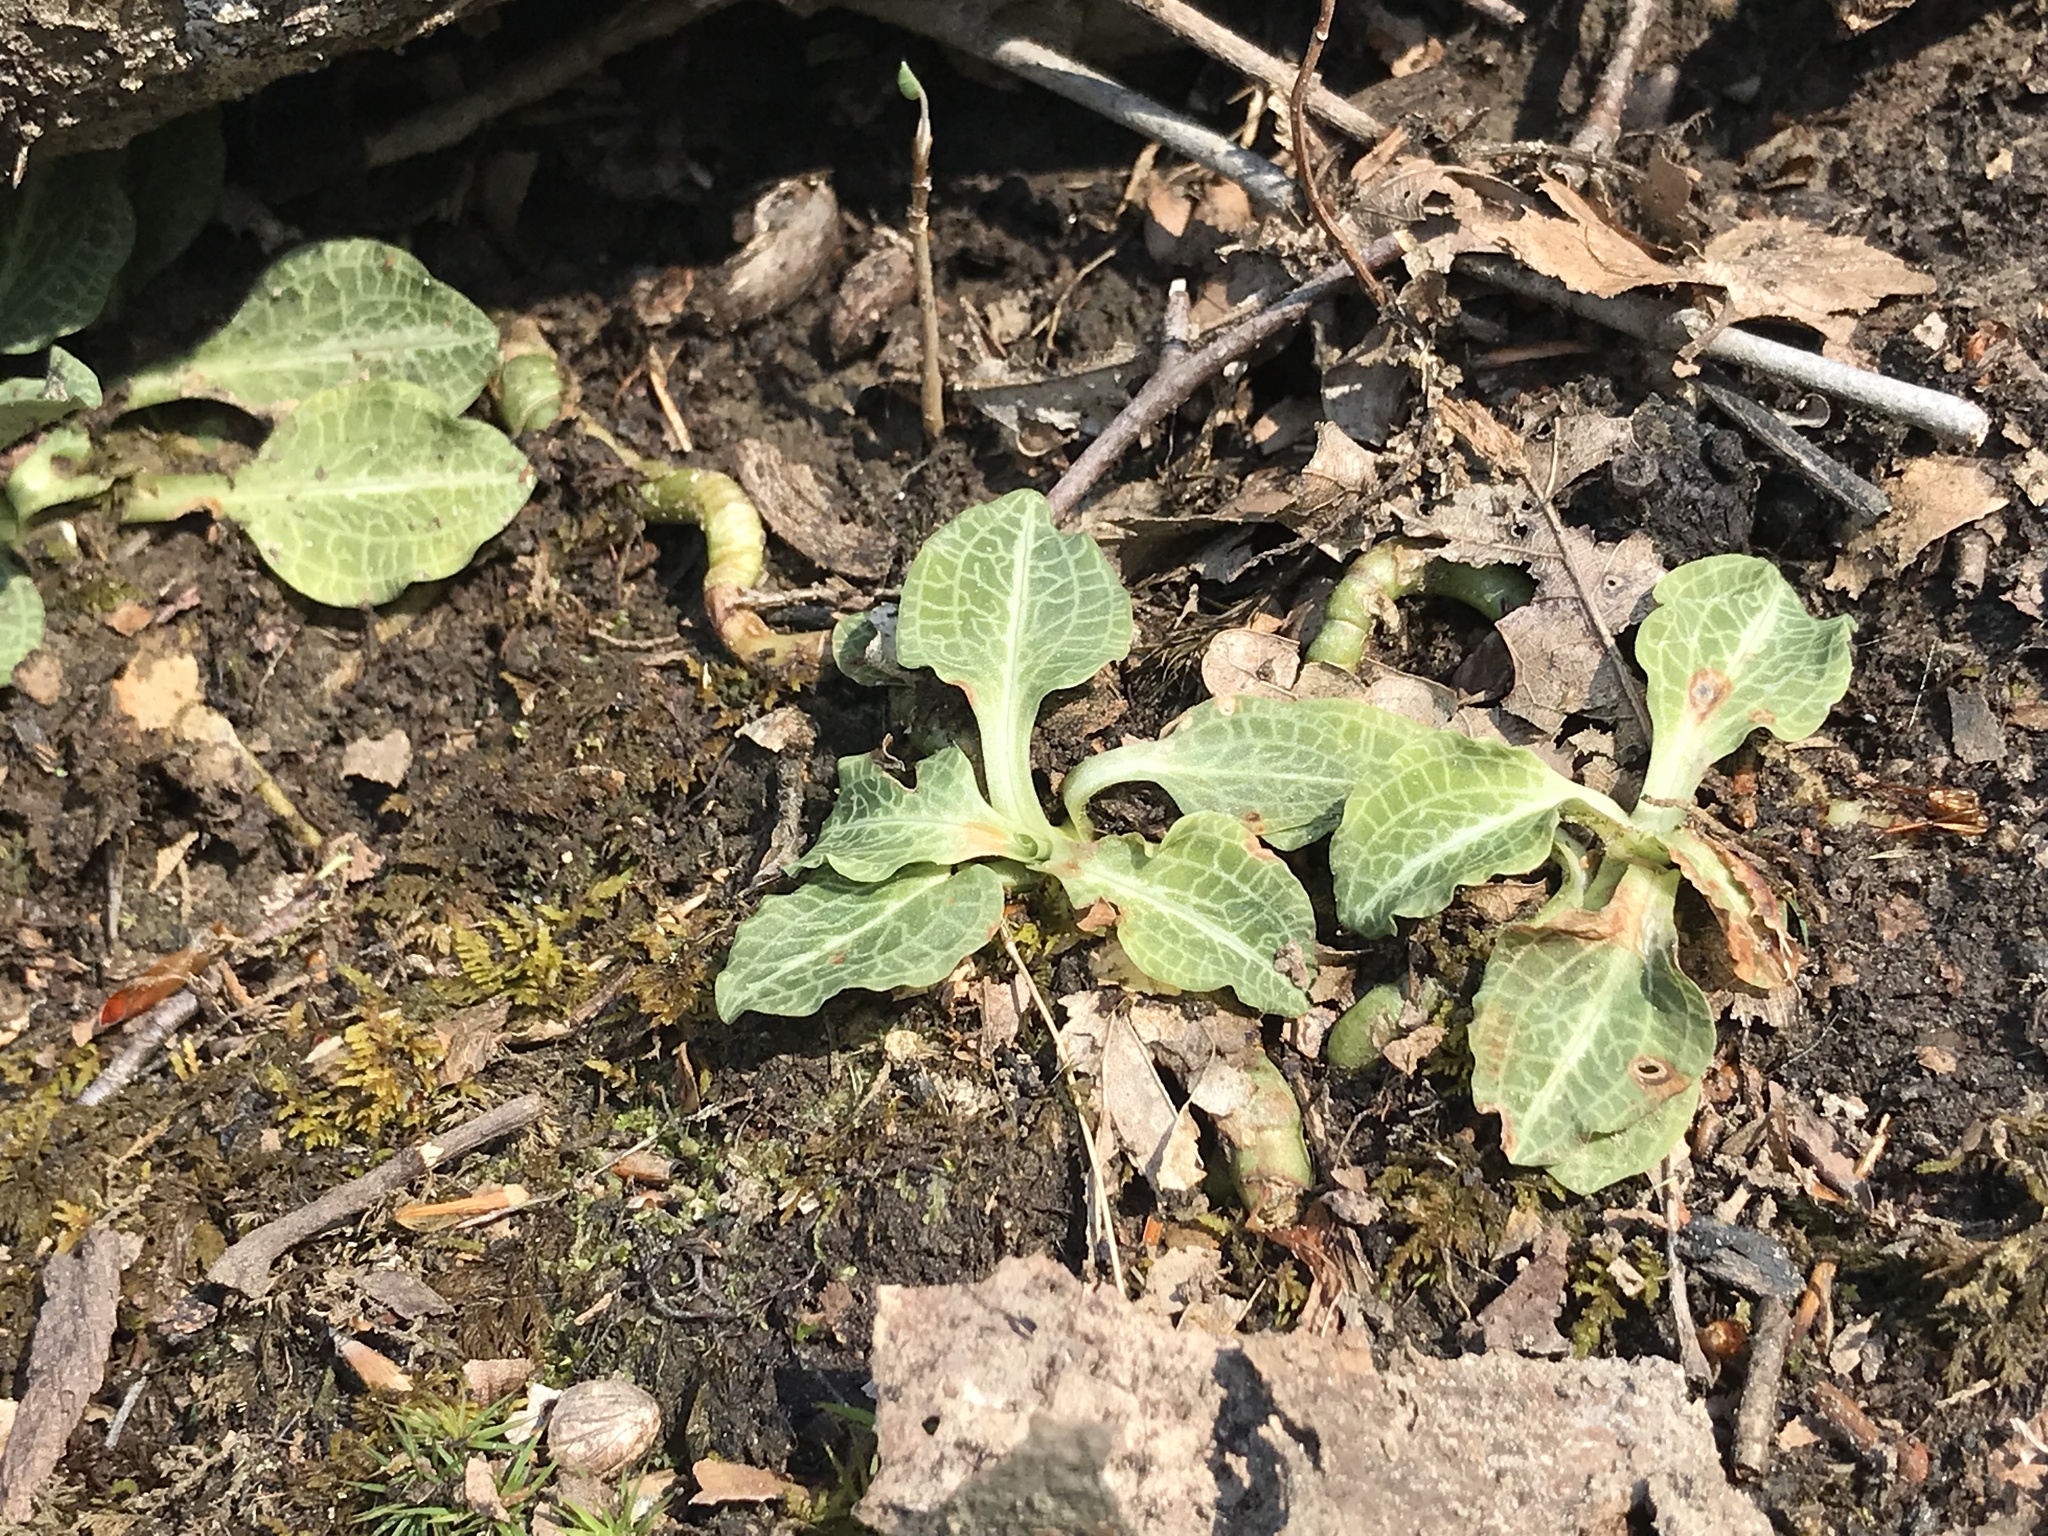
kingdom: Plantae
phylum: Tracheophyta
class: Liliopsida
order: Asparagales
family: Orchidaceae
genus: Goodyera
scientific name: Goodyera pubescens
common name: Downy rattlesnake-plantain
